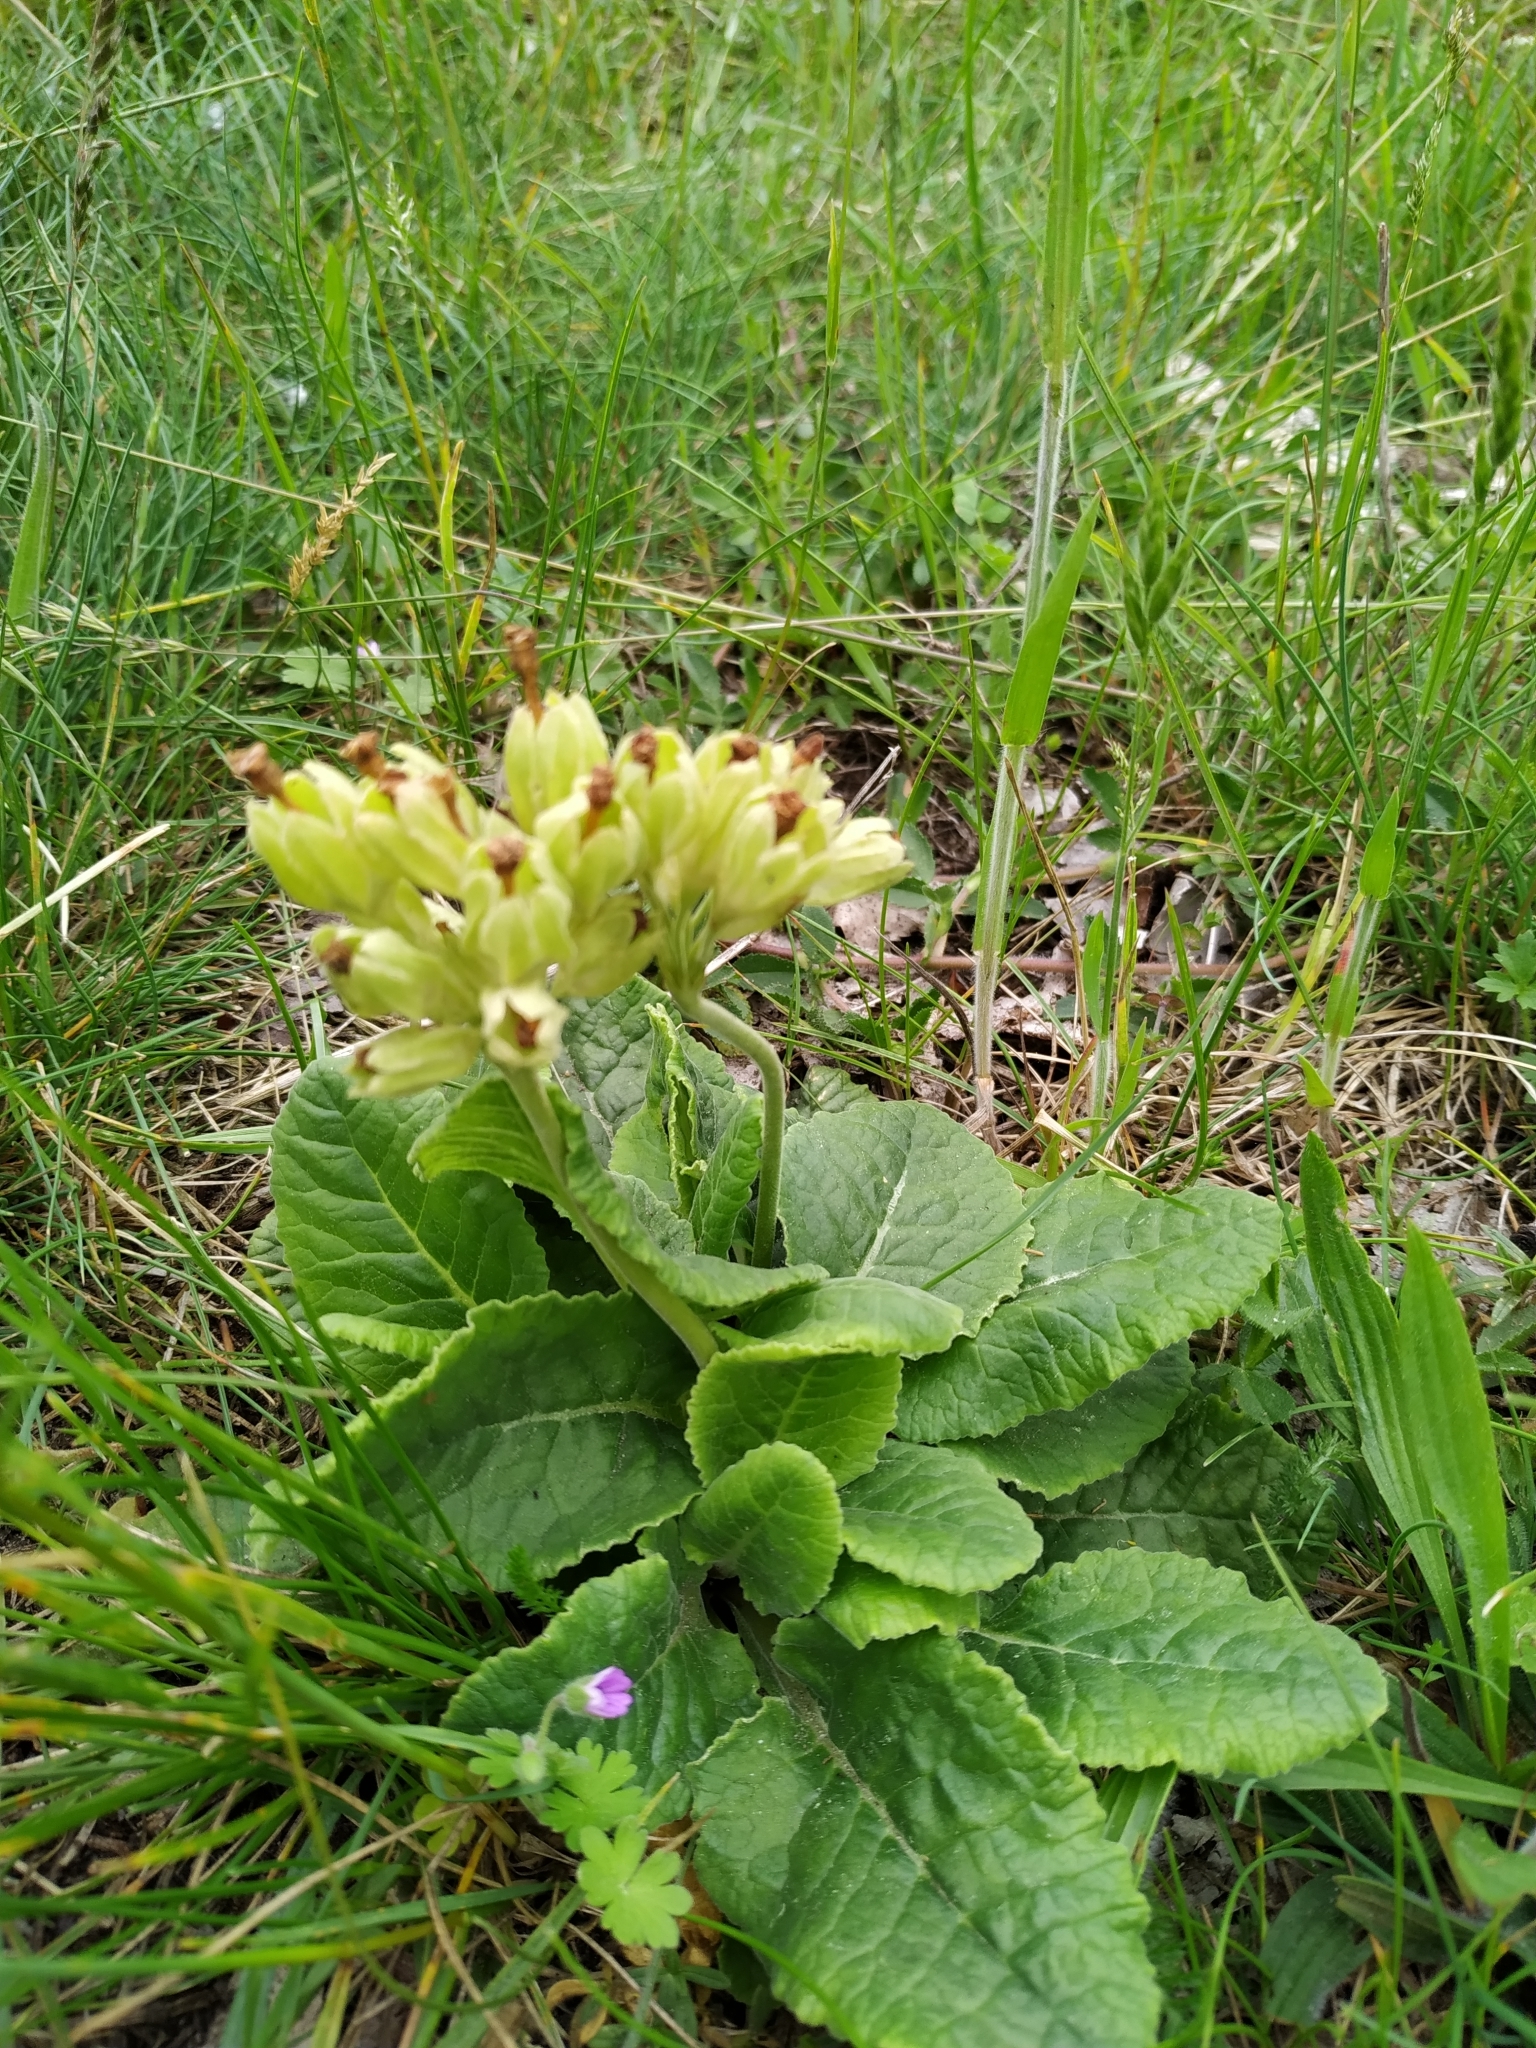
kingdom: Plantae
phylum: Tracheophyta
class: Magnoliopsida
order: Ericales
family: Primulaceae
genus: Primula
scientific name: Primula veris
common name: Cowslip
